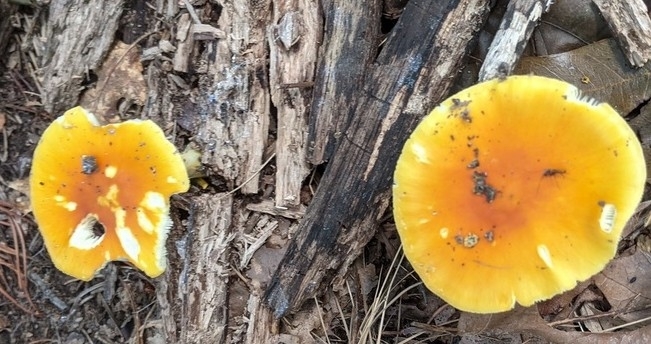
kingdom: Fungi
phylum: Basidiomycota
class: Agaricomycetes
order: Agaricales
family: Amanitaceae
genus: Amanita
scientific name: Amanita flavoconia
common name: Yellow patches
